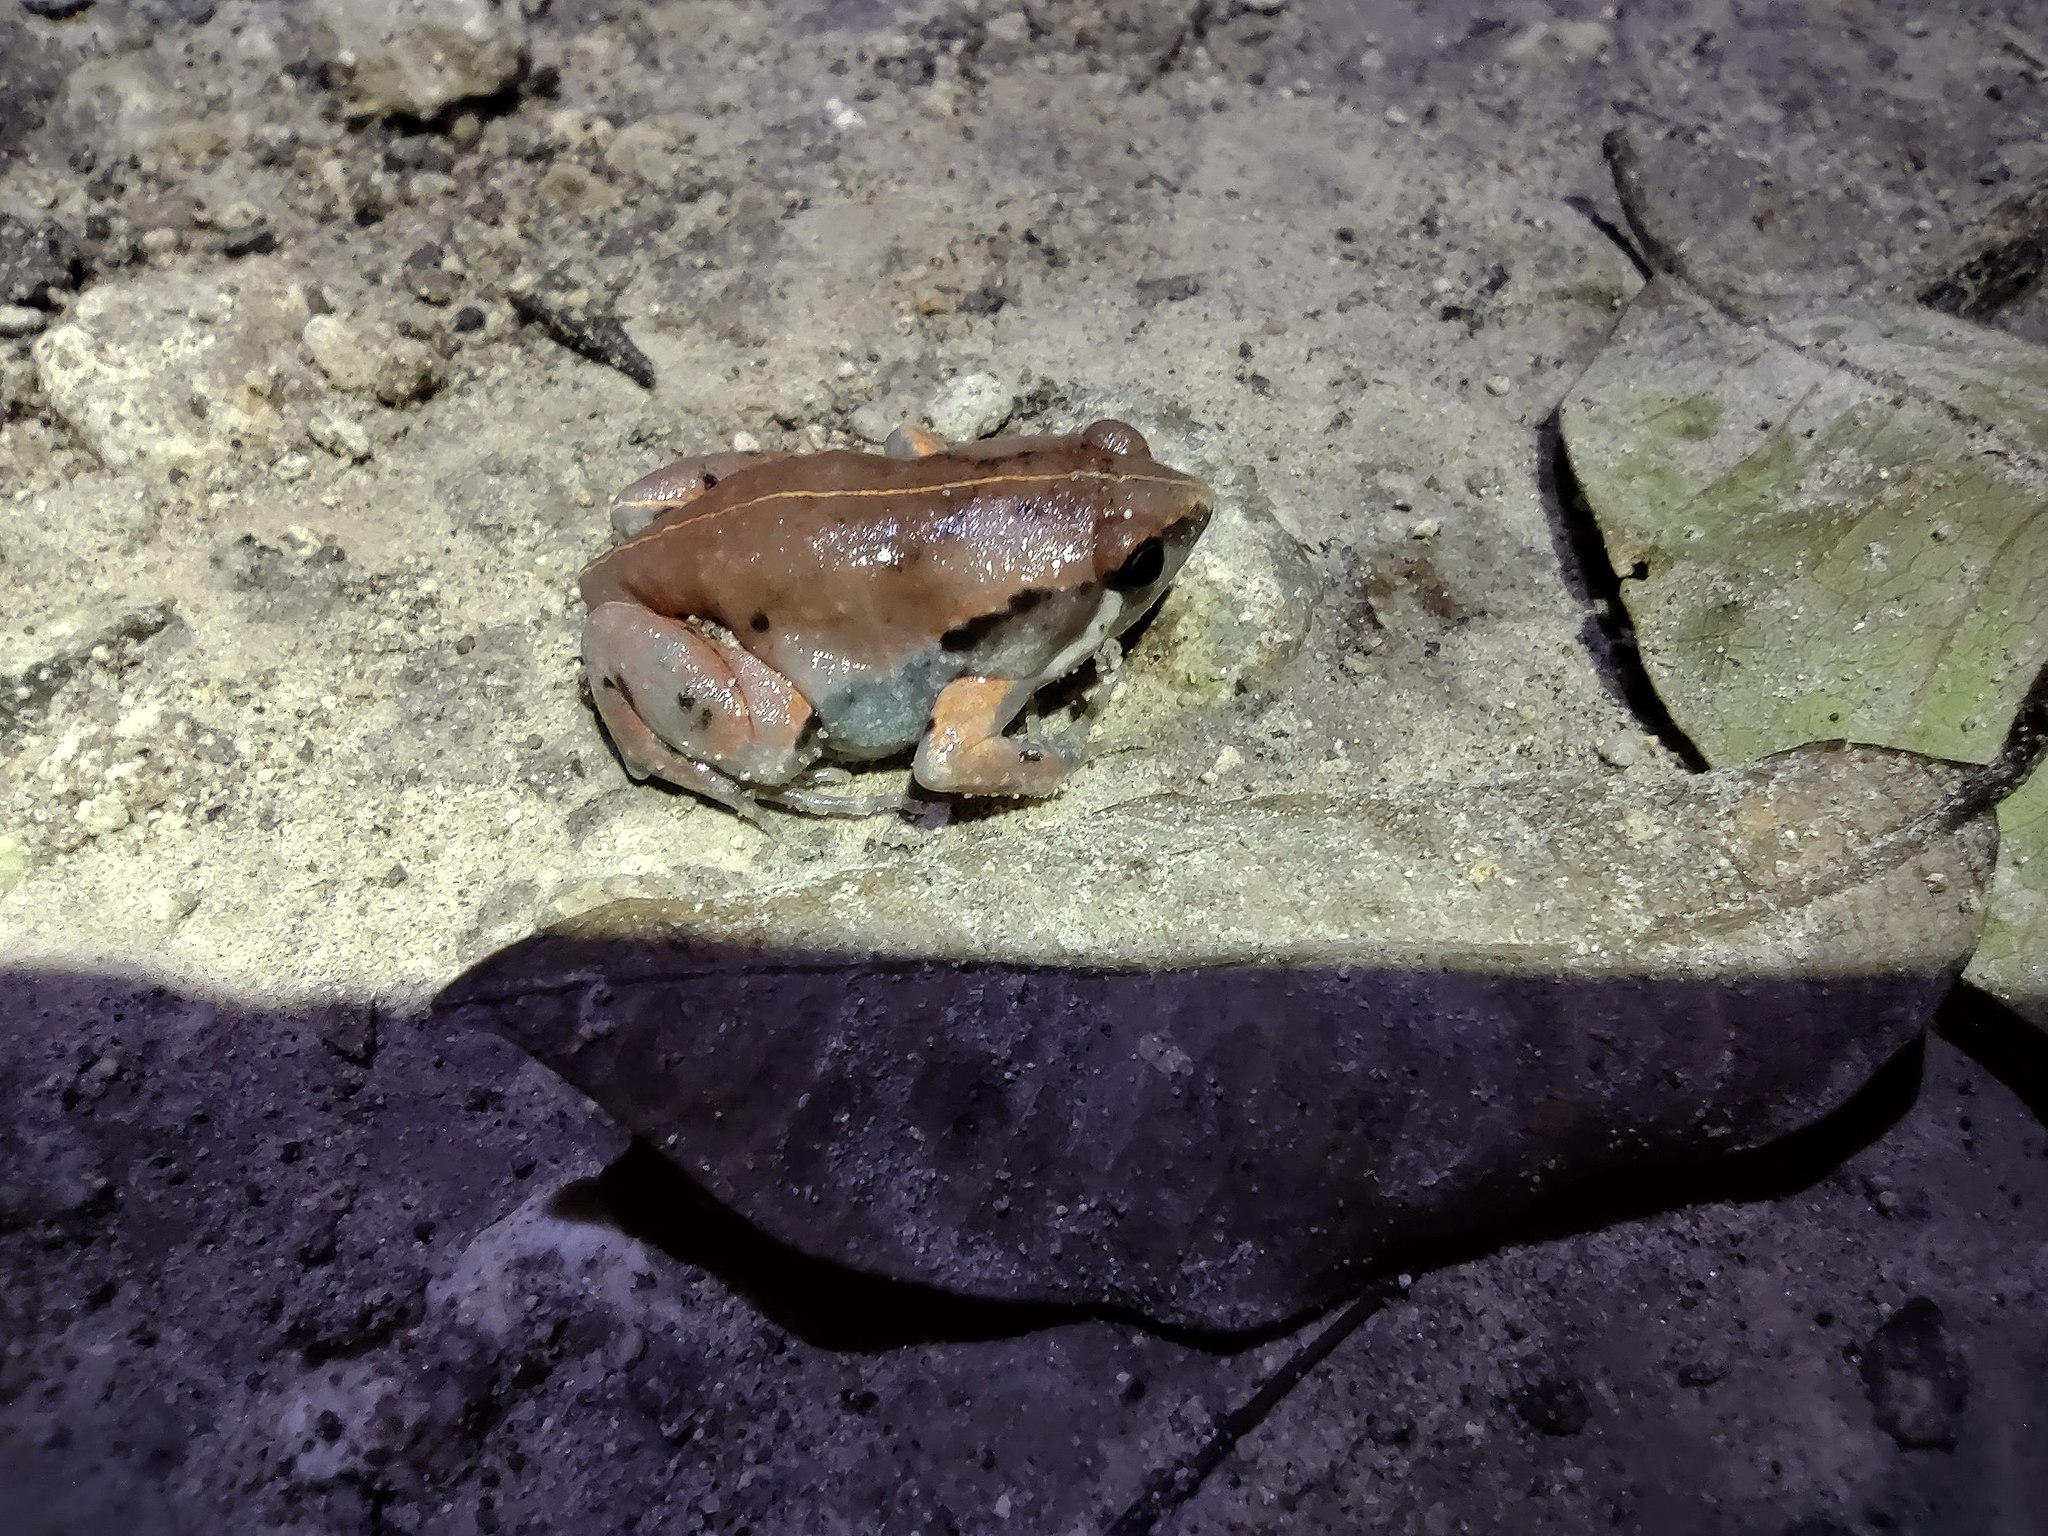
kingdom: Animalia
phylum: Chordata
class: Amphibia
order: Anura
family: Microhylidae
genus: Hypopachus
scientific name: Hypopachus variolosus
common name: Sheep frog
